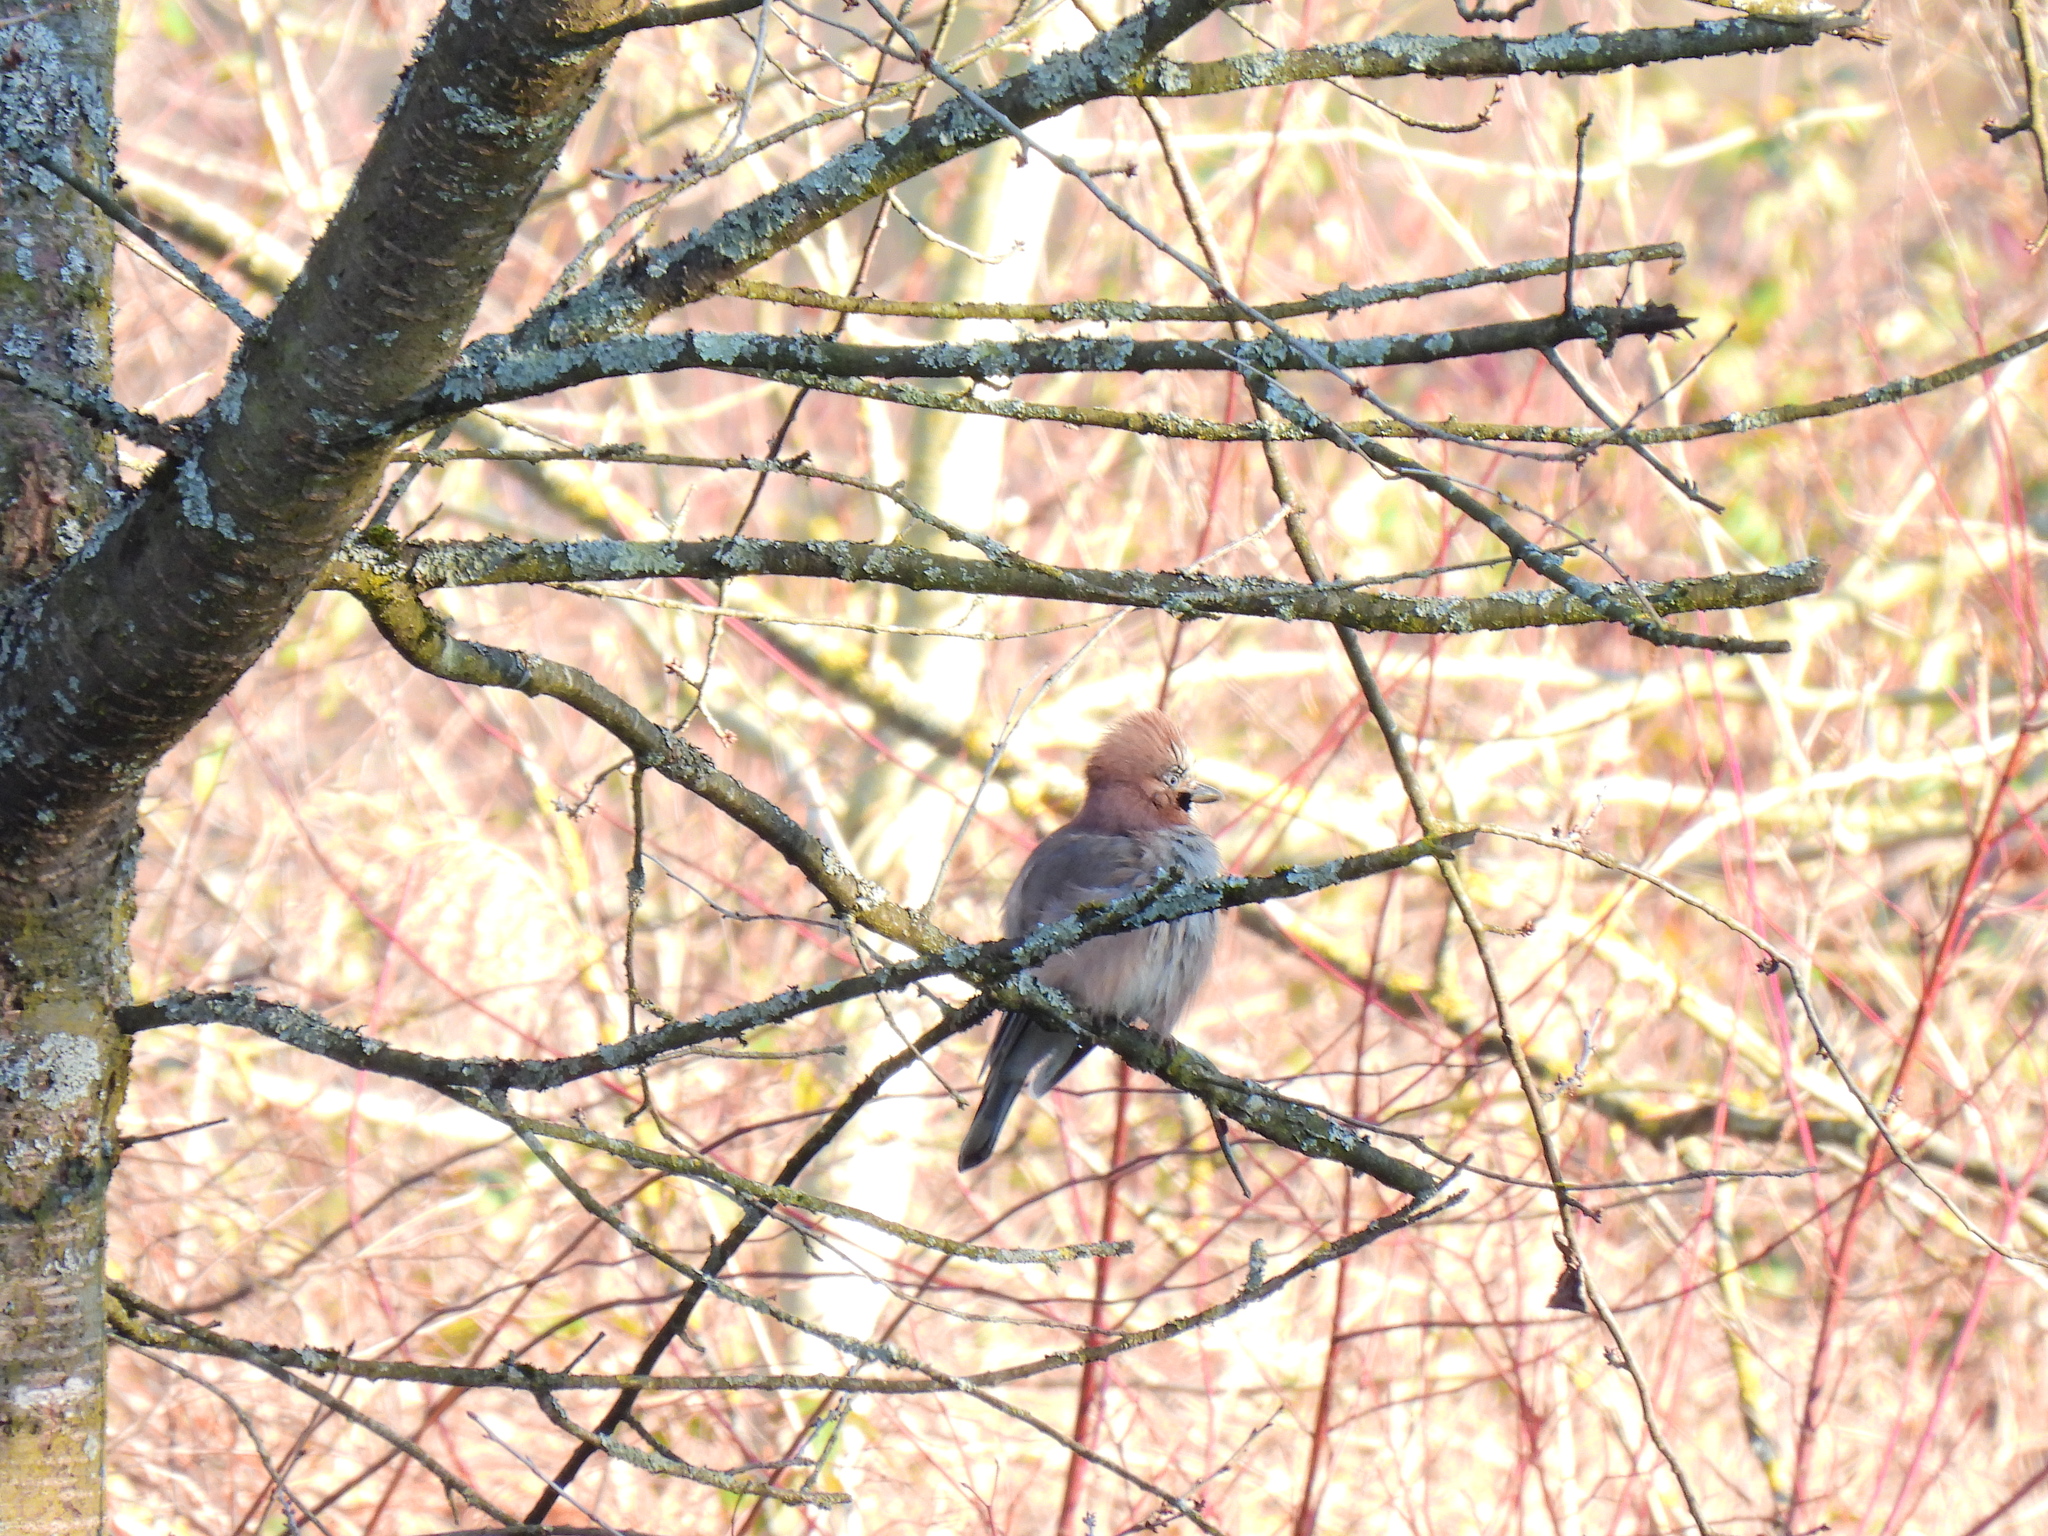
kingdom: Animalia
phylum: Chordata
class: Aves
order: Passeriformes
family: Corvidae
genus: Garrulus
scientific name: Garrulus glandarius
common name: Eurasian jay
